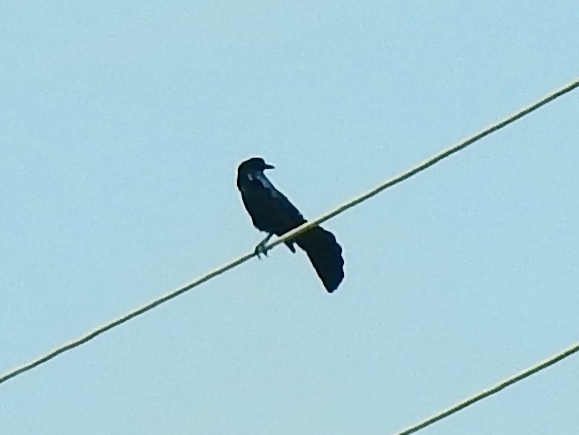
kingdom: Animalia
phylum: Chordata
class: Aves
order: Passeriformes
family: Icteridae
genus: Quiscalus
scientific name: Quiscalus mexicanus
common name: Great-tailed grackle
